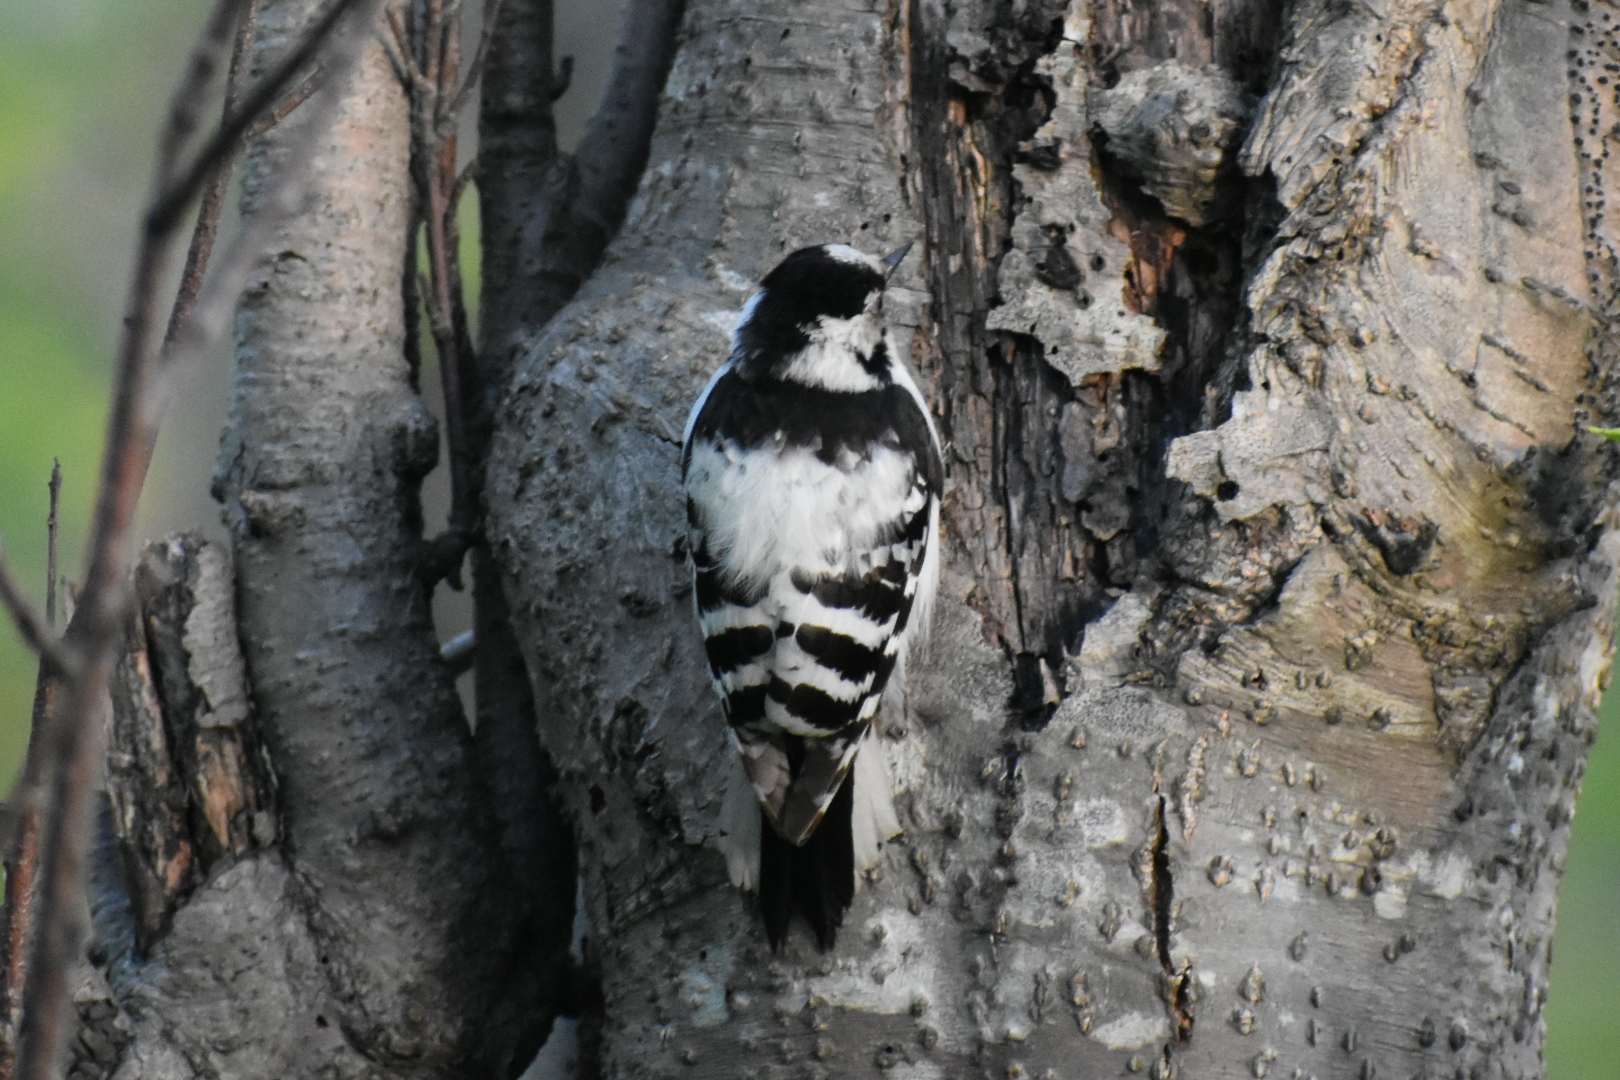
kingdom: Animalia
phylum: Chordata
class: Aves
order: Piciformes
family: Picidae
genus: Dryobates
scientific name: Dryobates minor
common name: Lesser spotted woodpecker
